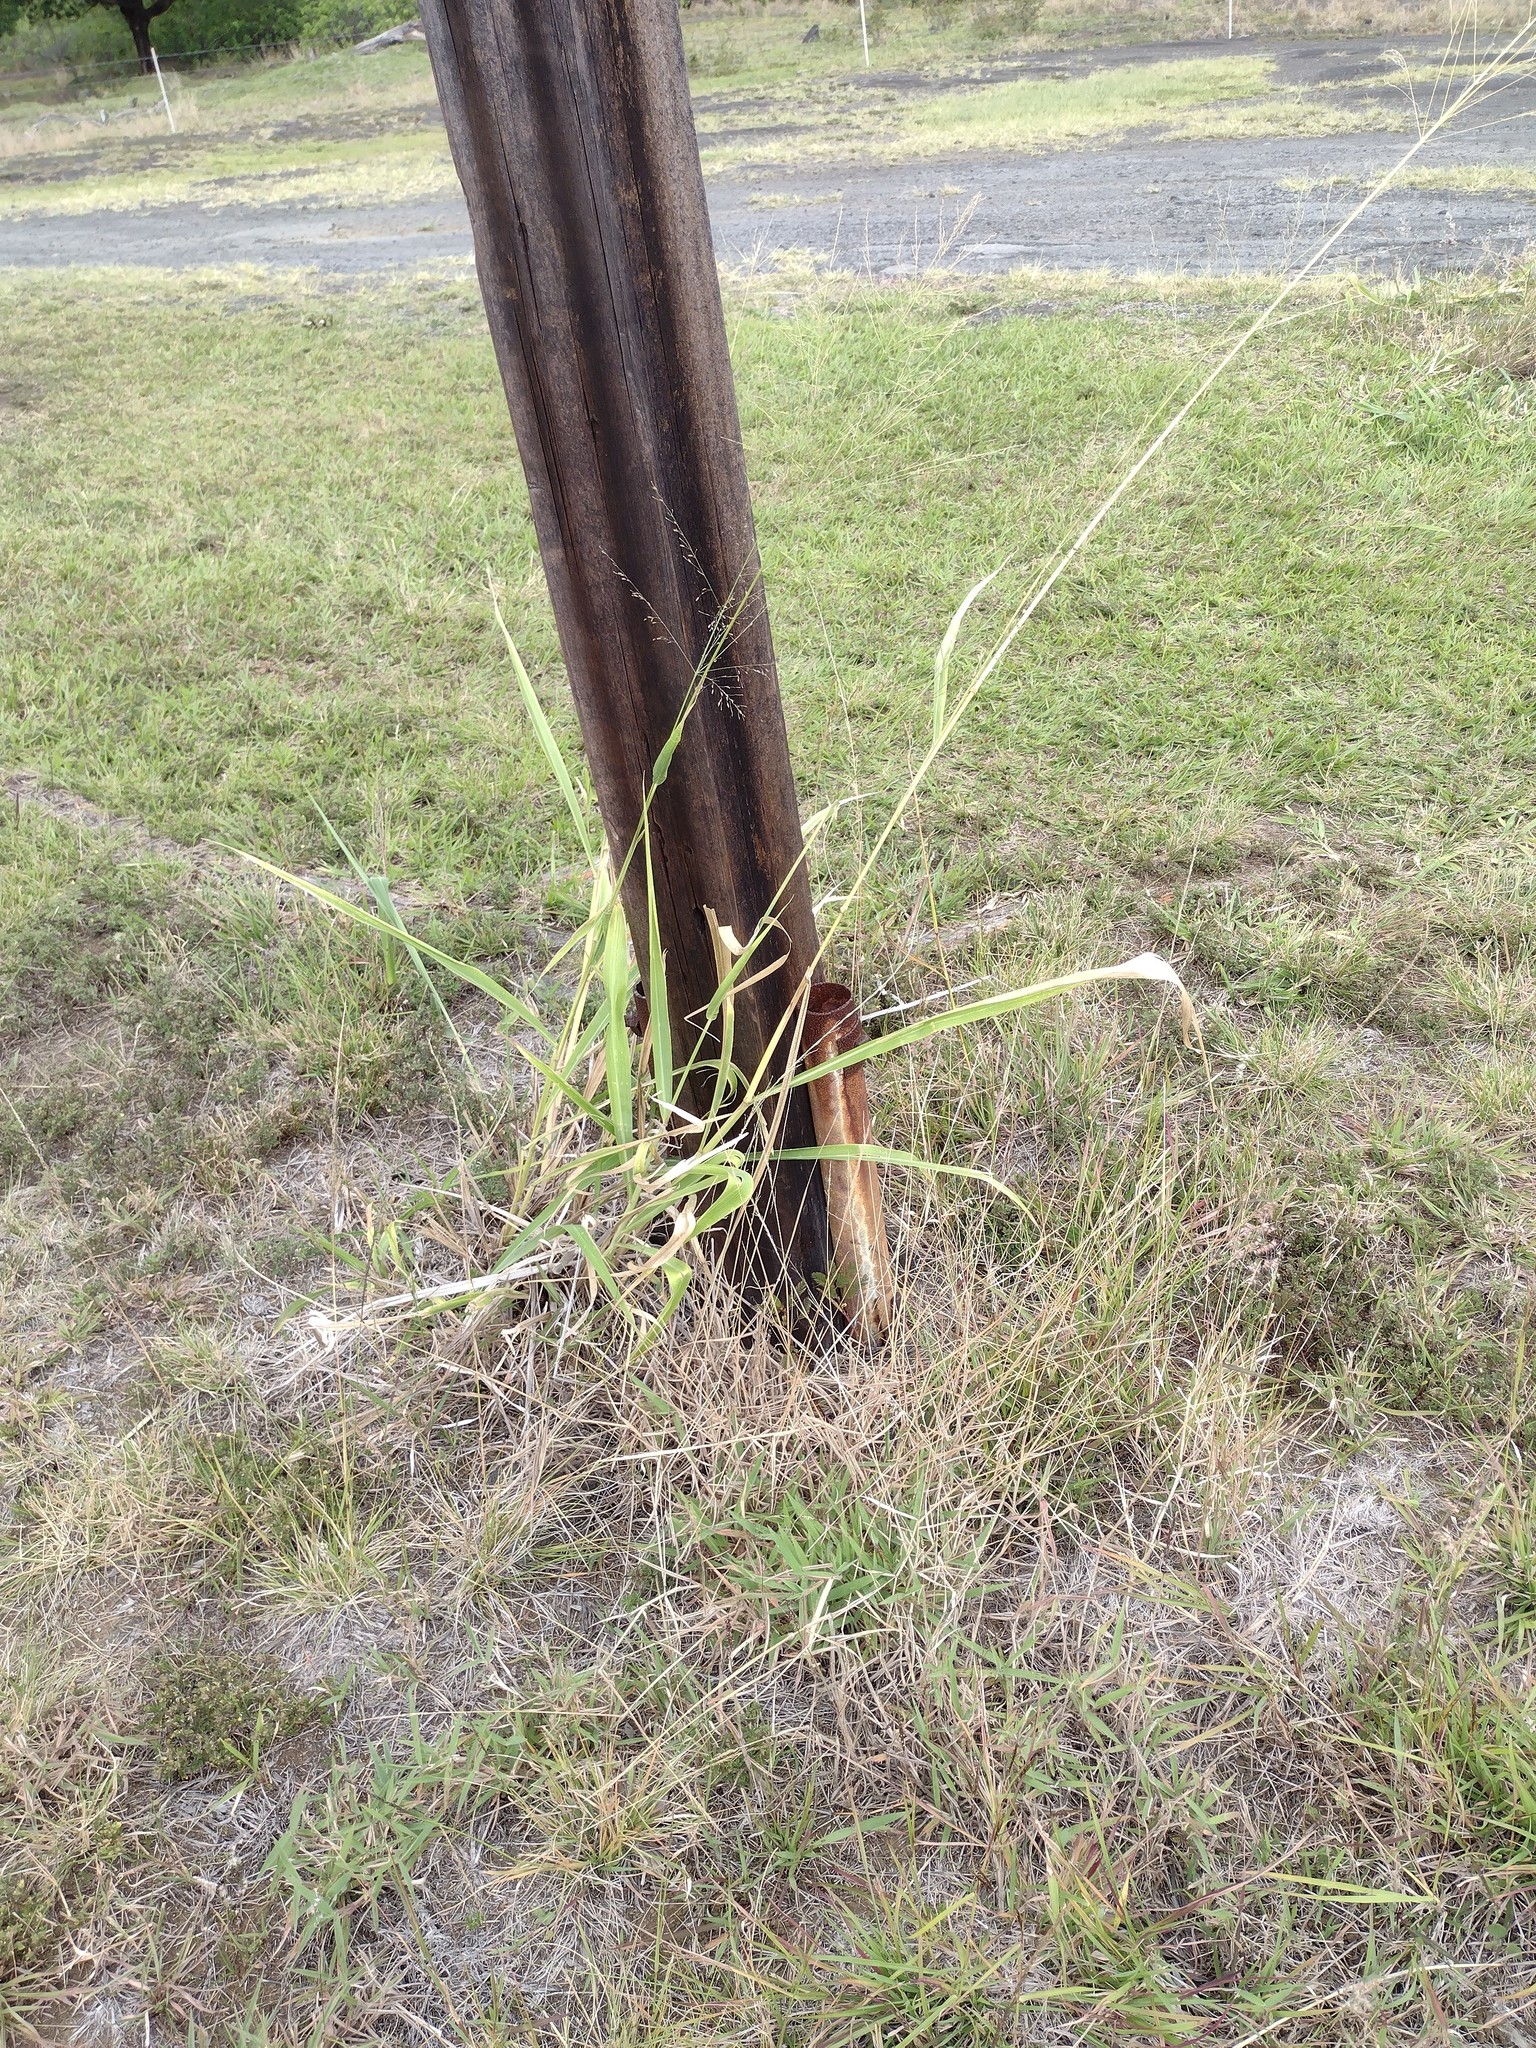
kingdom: Plantae
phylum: Tracheophyta
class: Liliopsida
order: Poales
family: Poaceae
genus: Megathyrsus
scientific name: Megathyrsus maximus
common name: Guineagrass
